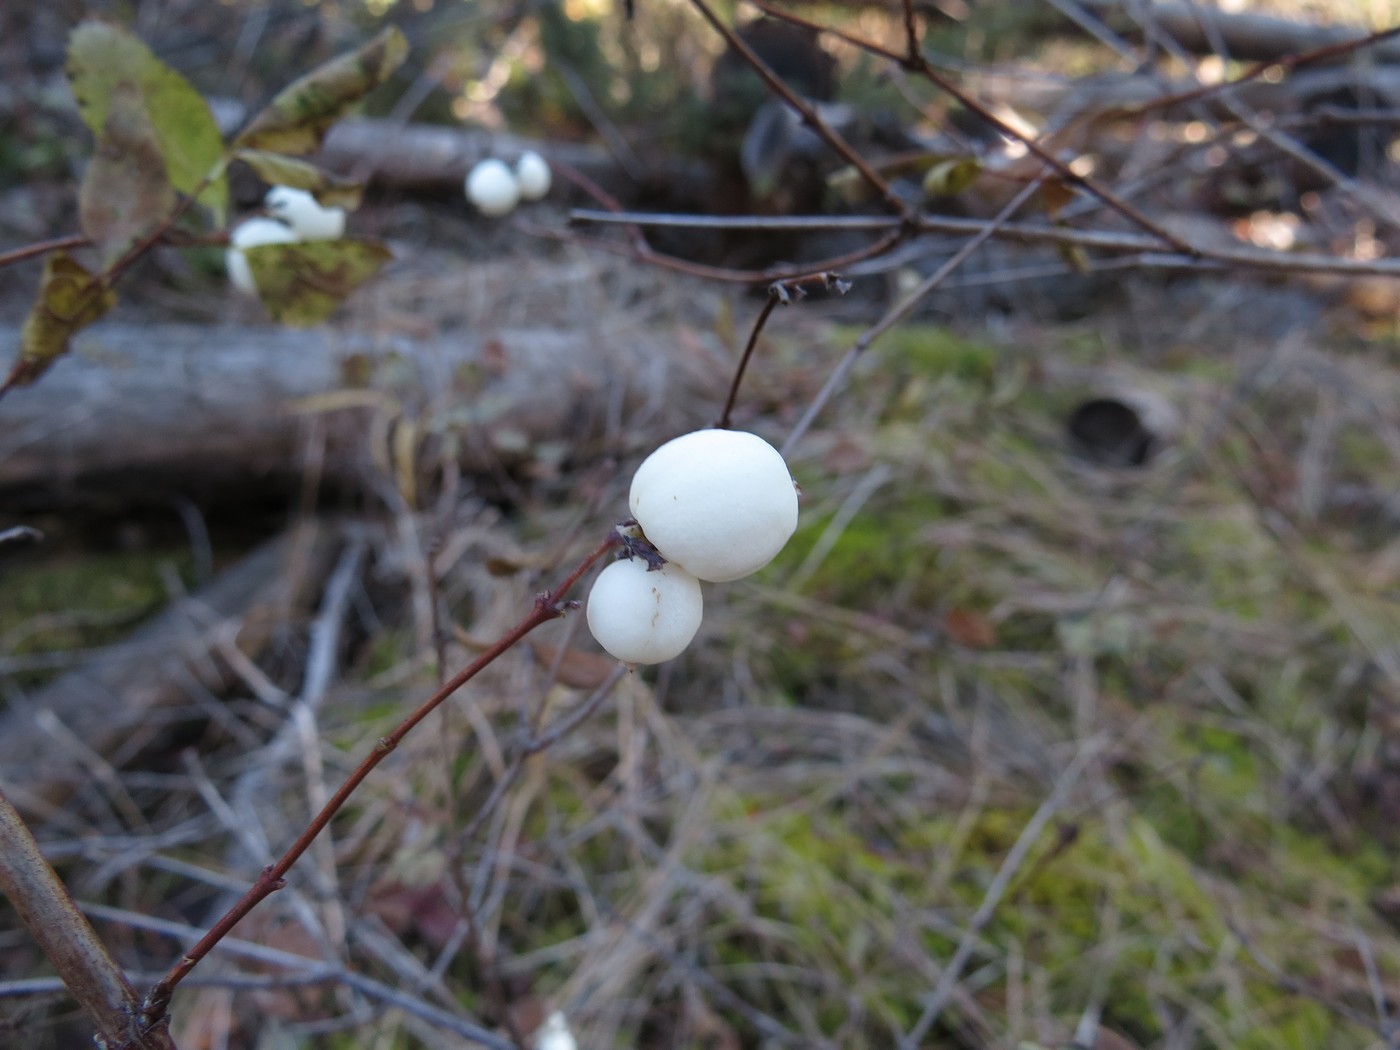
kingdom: Plantae
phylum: Tracheophyta
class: Magnoliopsida
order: Dipsacales
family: Caprifoliaceae
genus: Symphoricarpos
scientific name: Symphoricarpos albus
